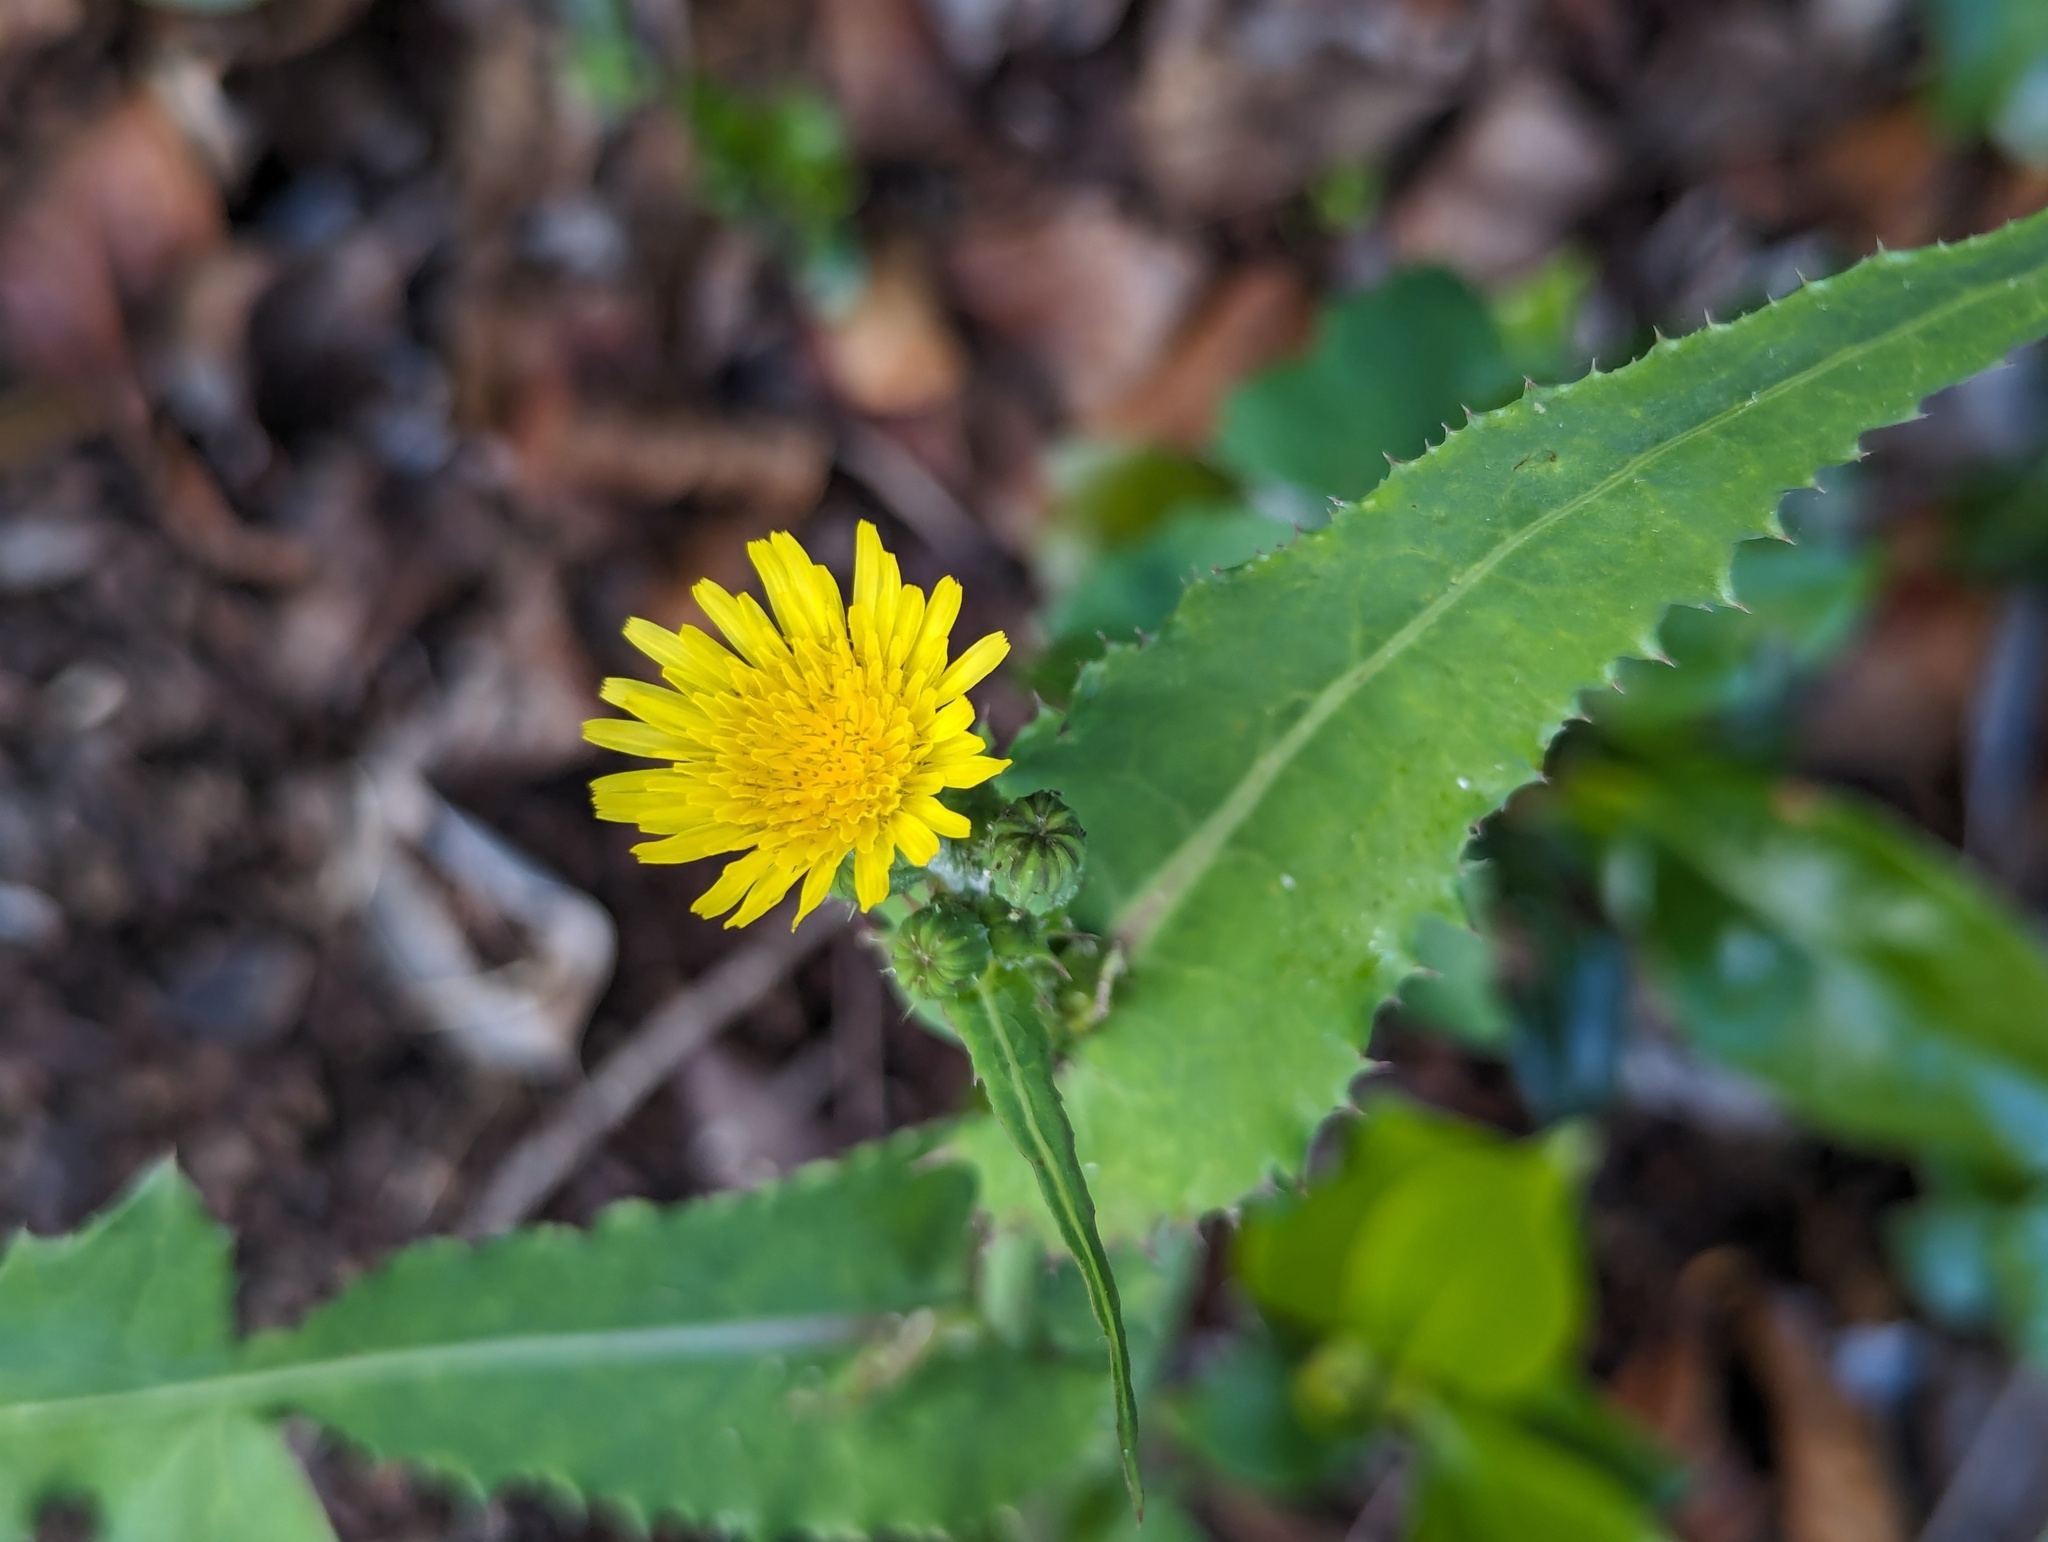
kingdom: Plantae
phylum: Tracheophyta
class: Magnoliopsida
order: Asterales
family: Asteraceae
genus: Sonchus
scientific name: Sonchus oleraceus
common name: Common sowthistle
